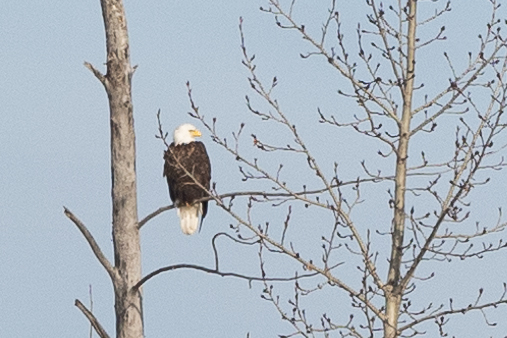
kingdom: Animalia
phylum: Chordata
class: Aves
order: Accipitriformes
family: Accipitridae
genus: Haliaeetus
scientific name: Haliaeetus leucocephalus
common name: Bald eagle
